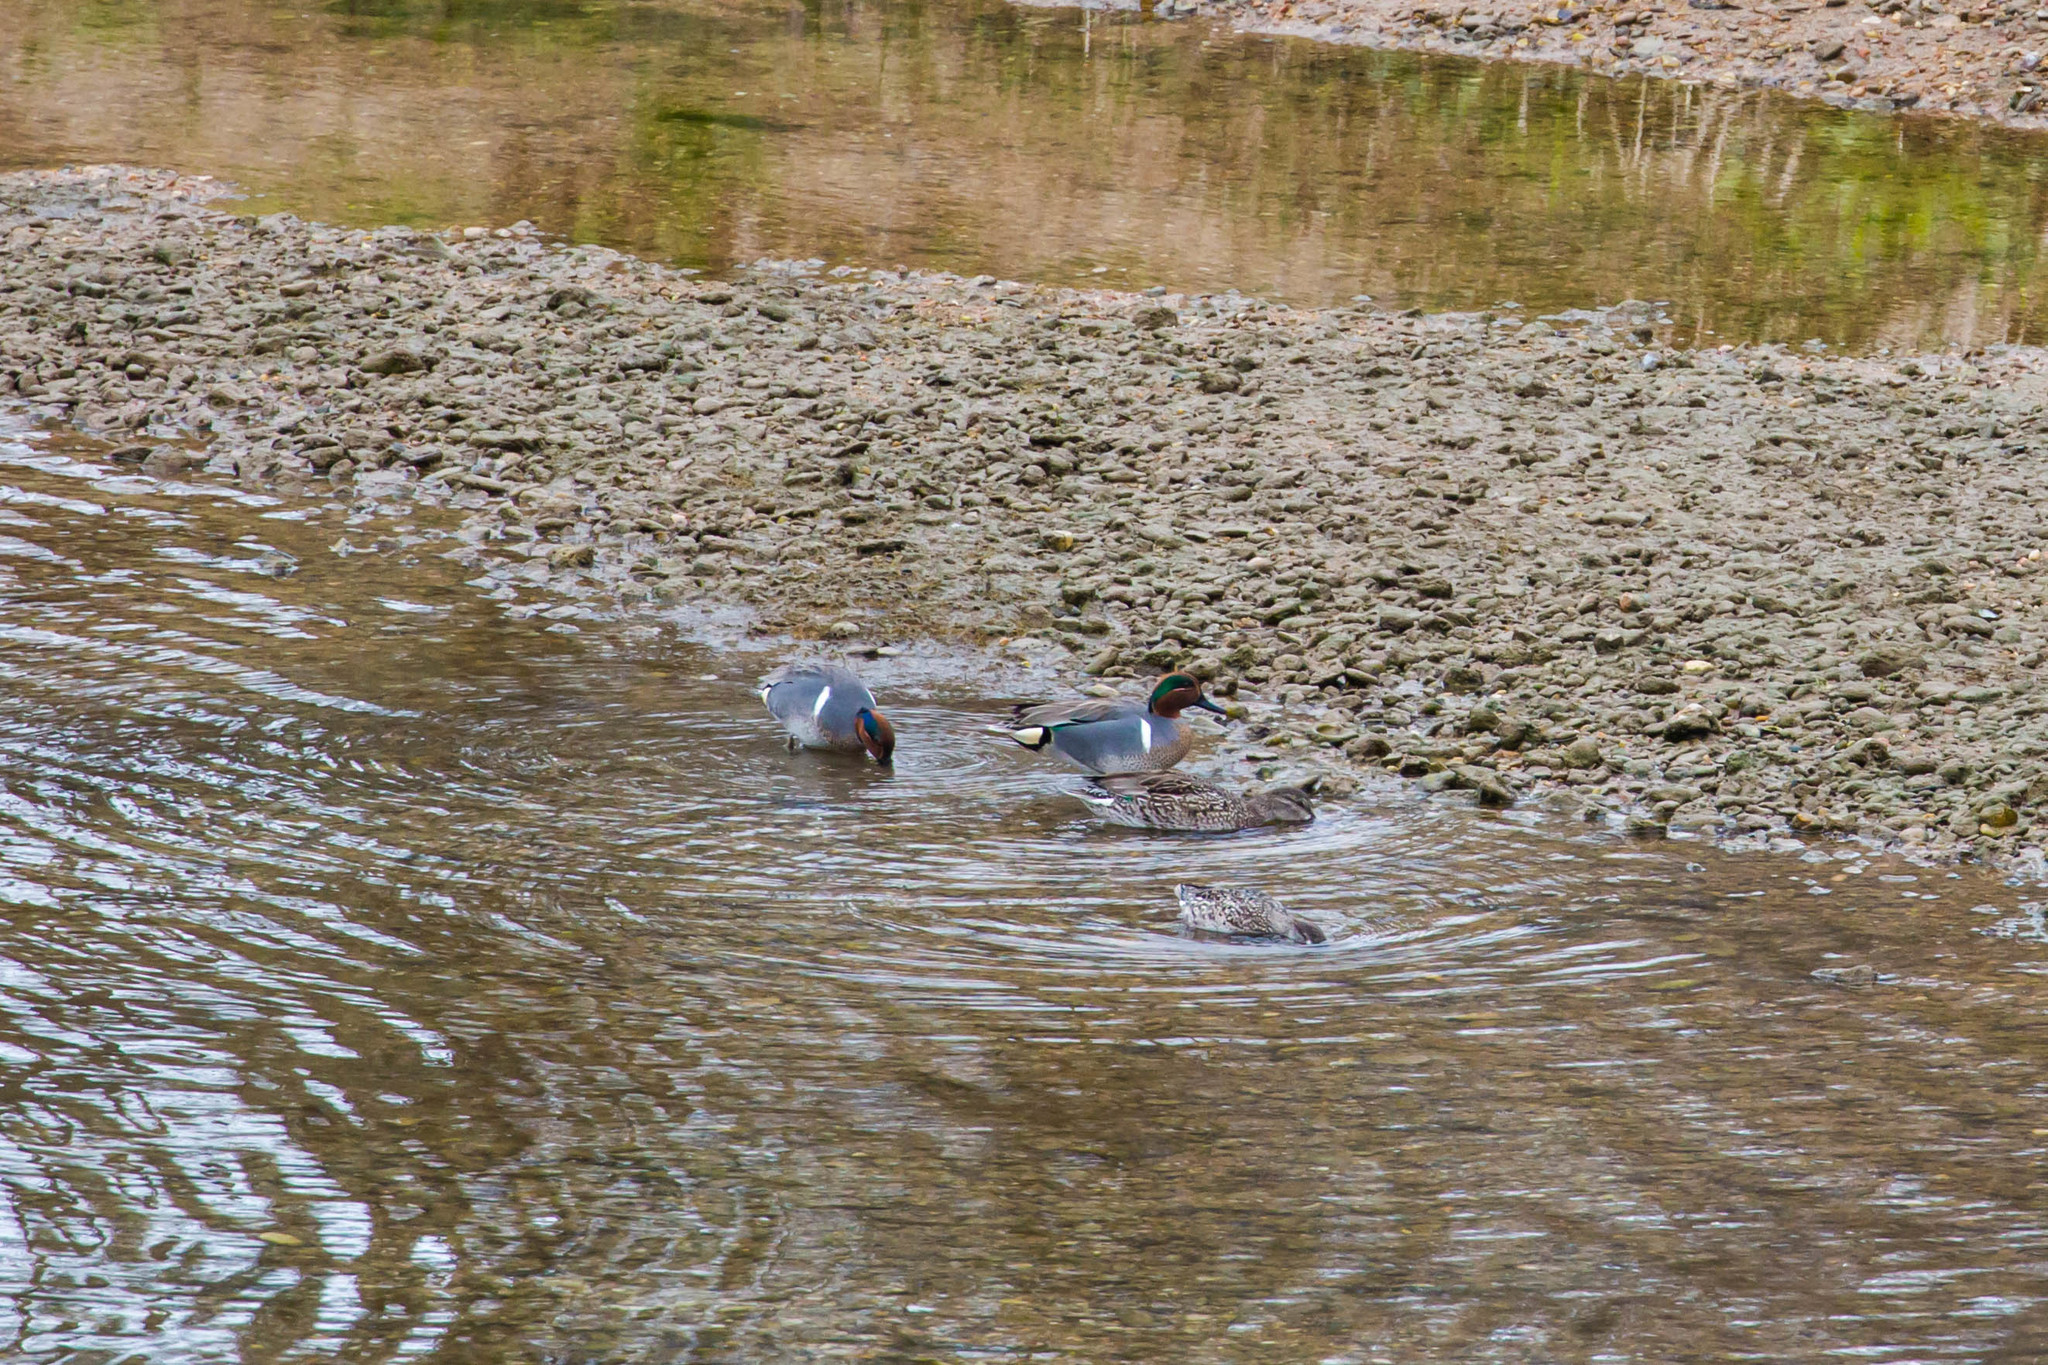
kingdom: Animalia
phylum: Chordata
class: Aves
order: Anseriformes
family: Anatidae
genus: Anas
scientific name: Anas crecca
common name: Eurasian teal
